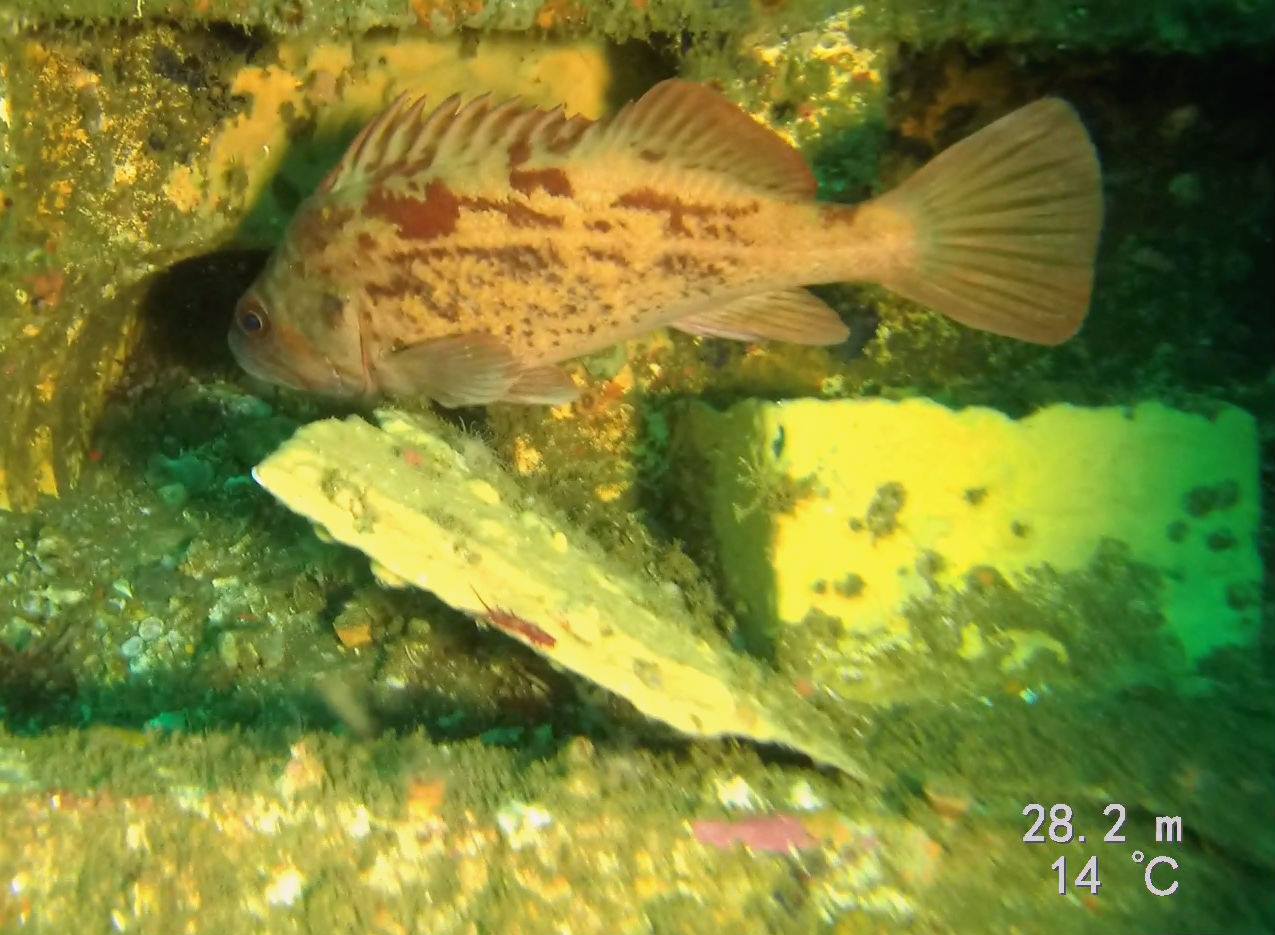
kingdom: Animalia
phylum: Chordata
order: Scorpaeniformes
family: Sebastidae
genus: Sebastes
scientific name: Sebastes auriculatus
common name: Brown rockfish
